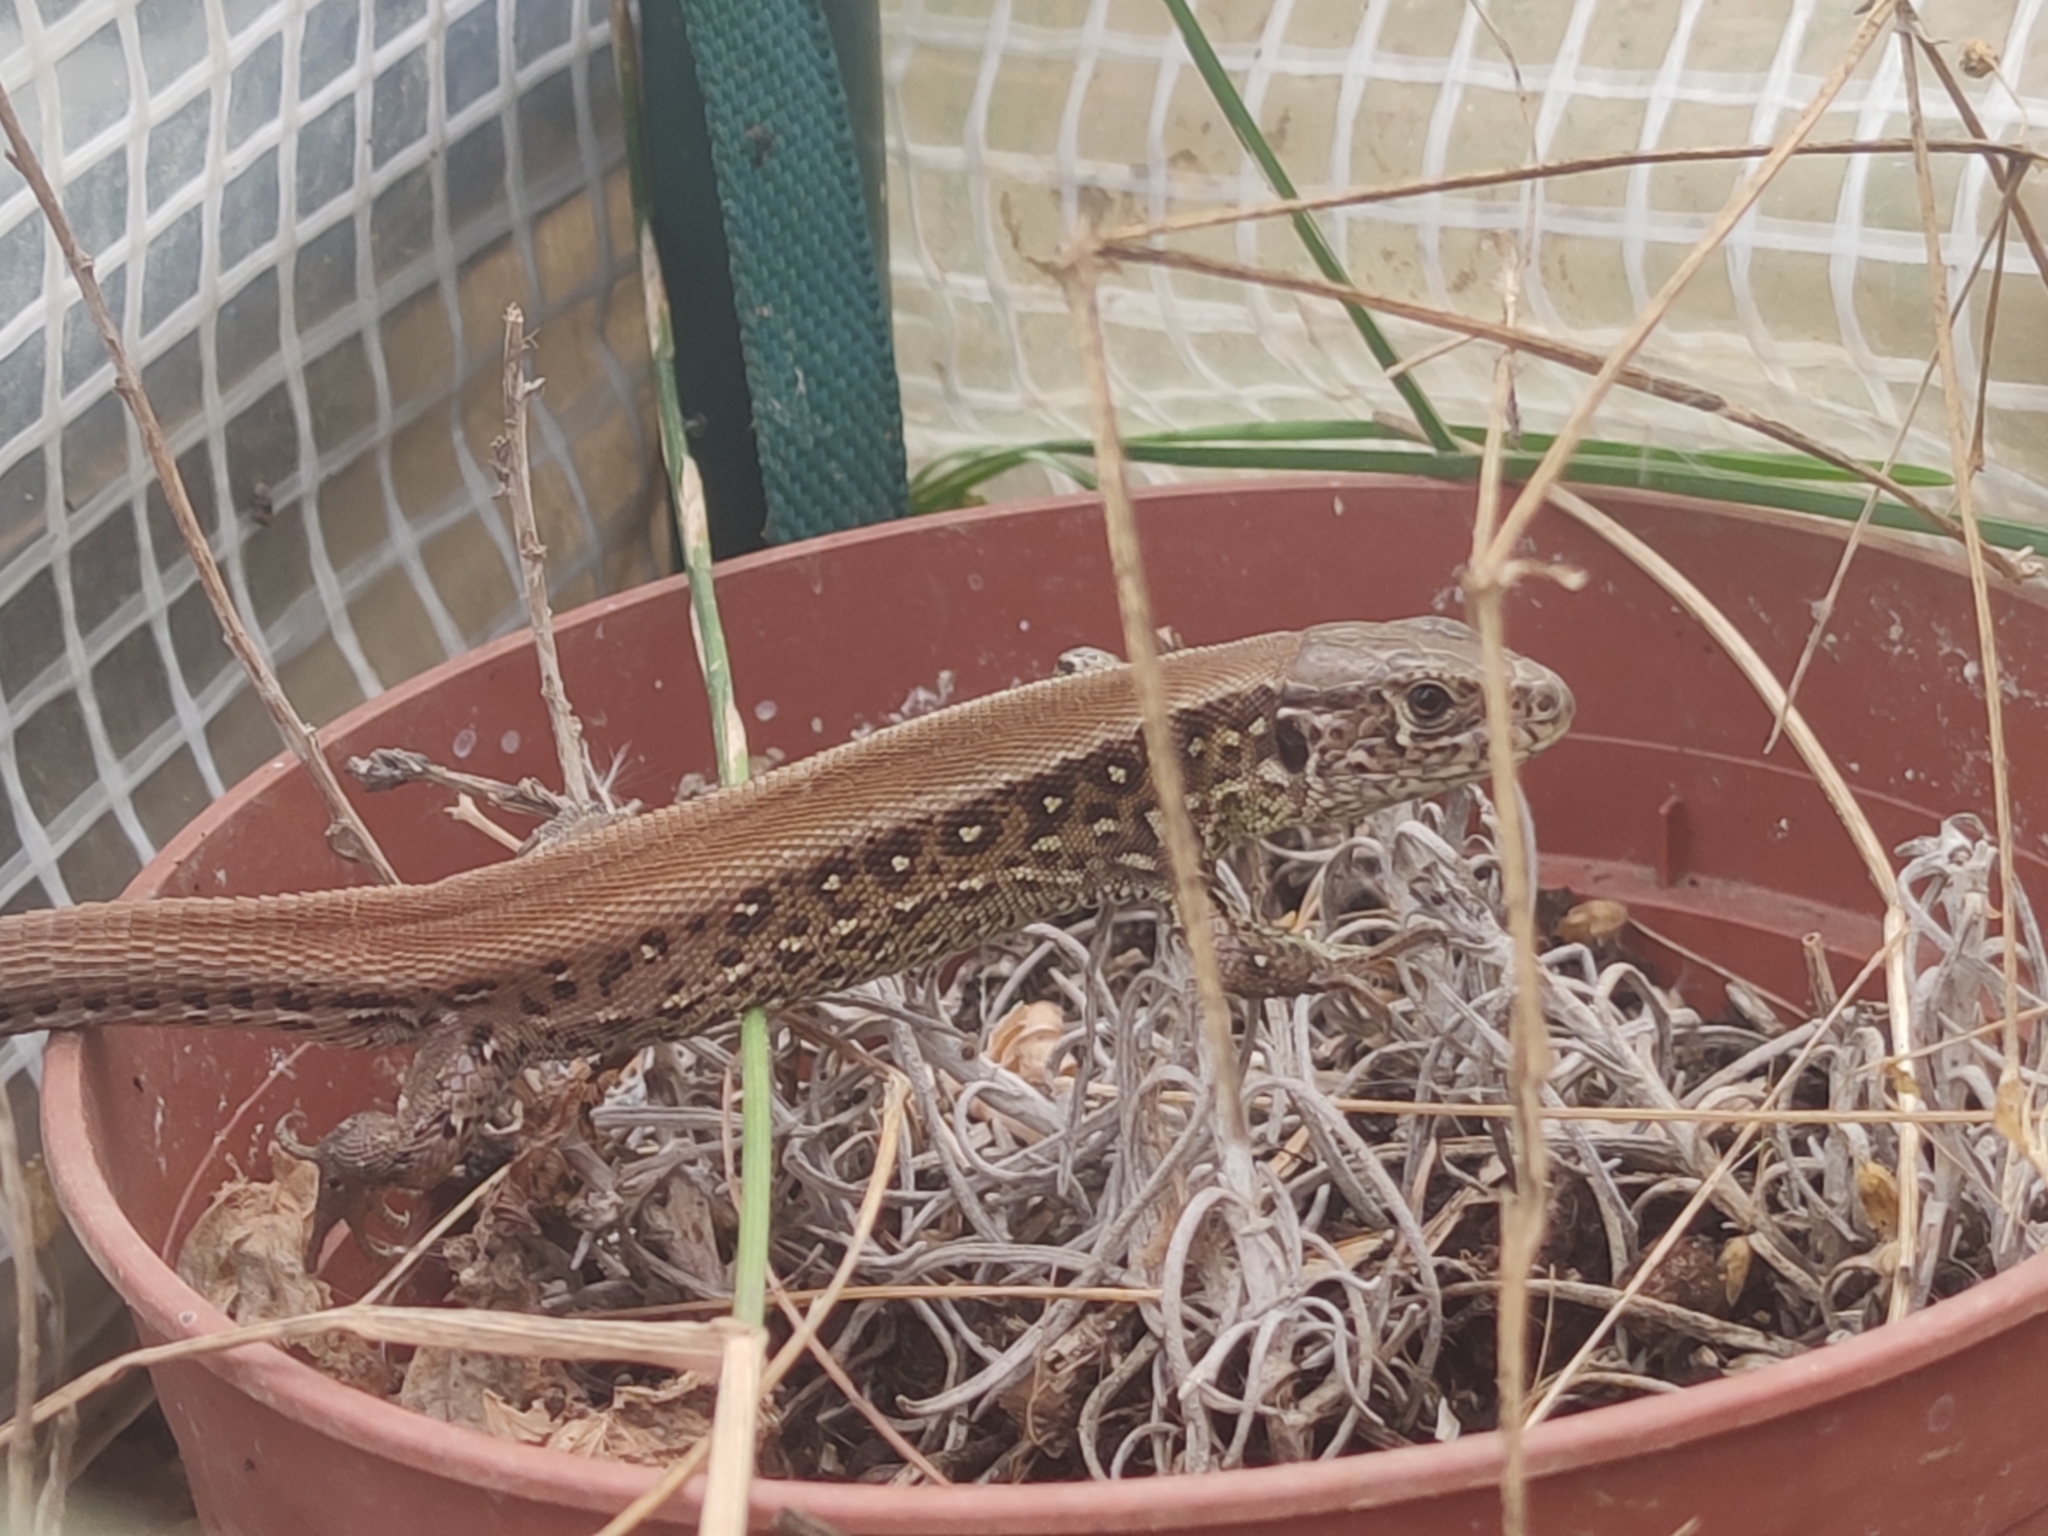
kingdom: Animalia
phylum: Chordata
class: Squamata
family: Lacertidae
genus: Lacerta
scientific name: Lacerta agilis
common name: Sand lizard
